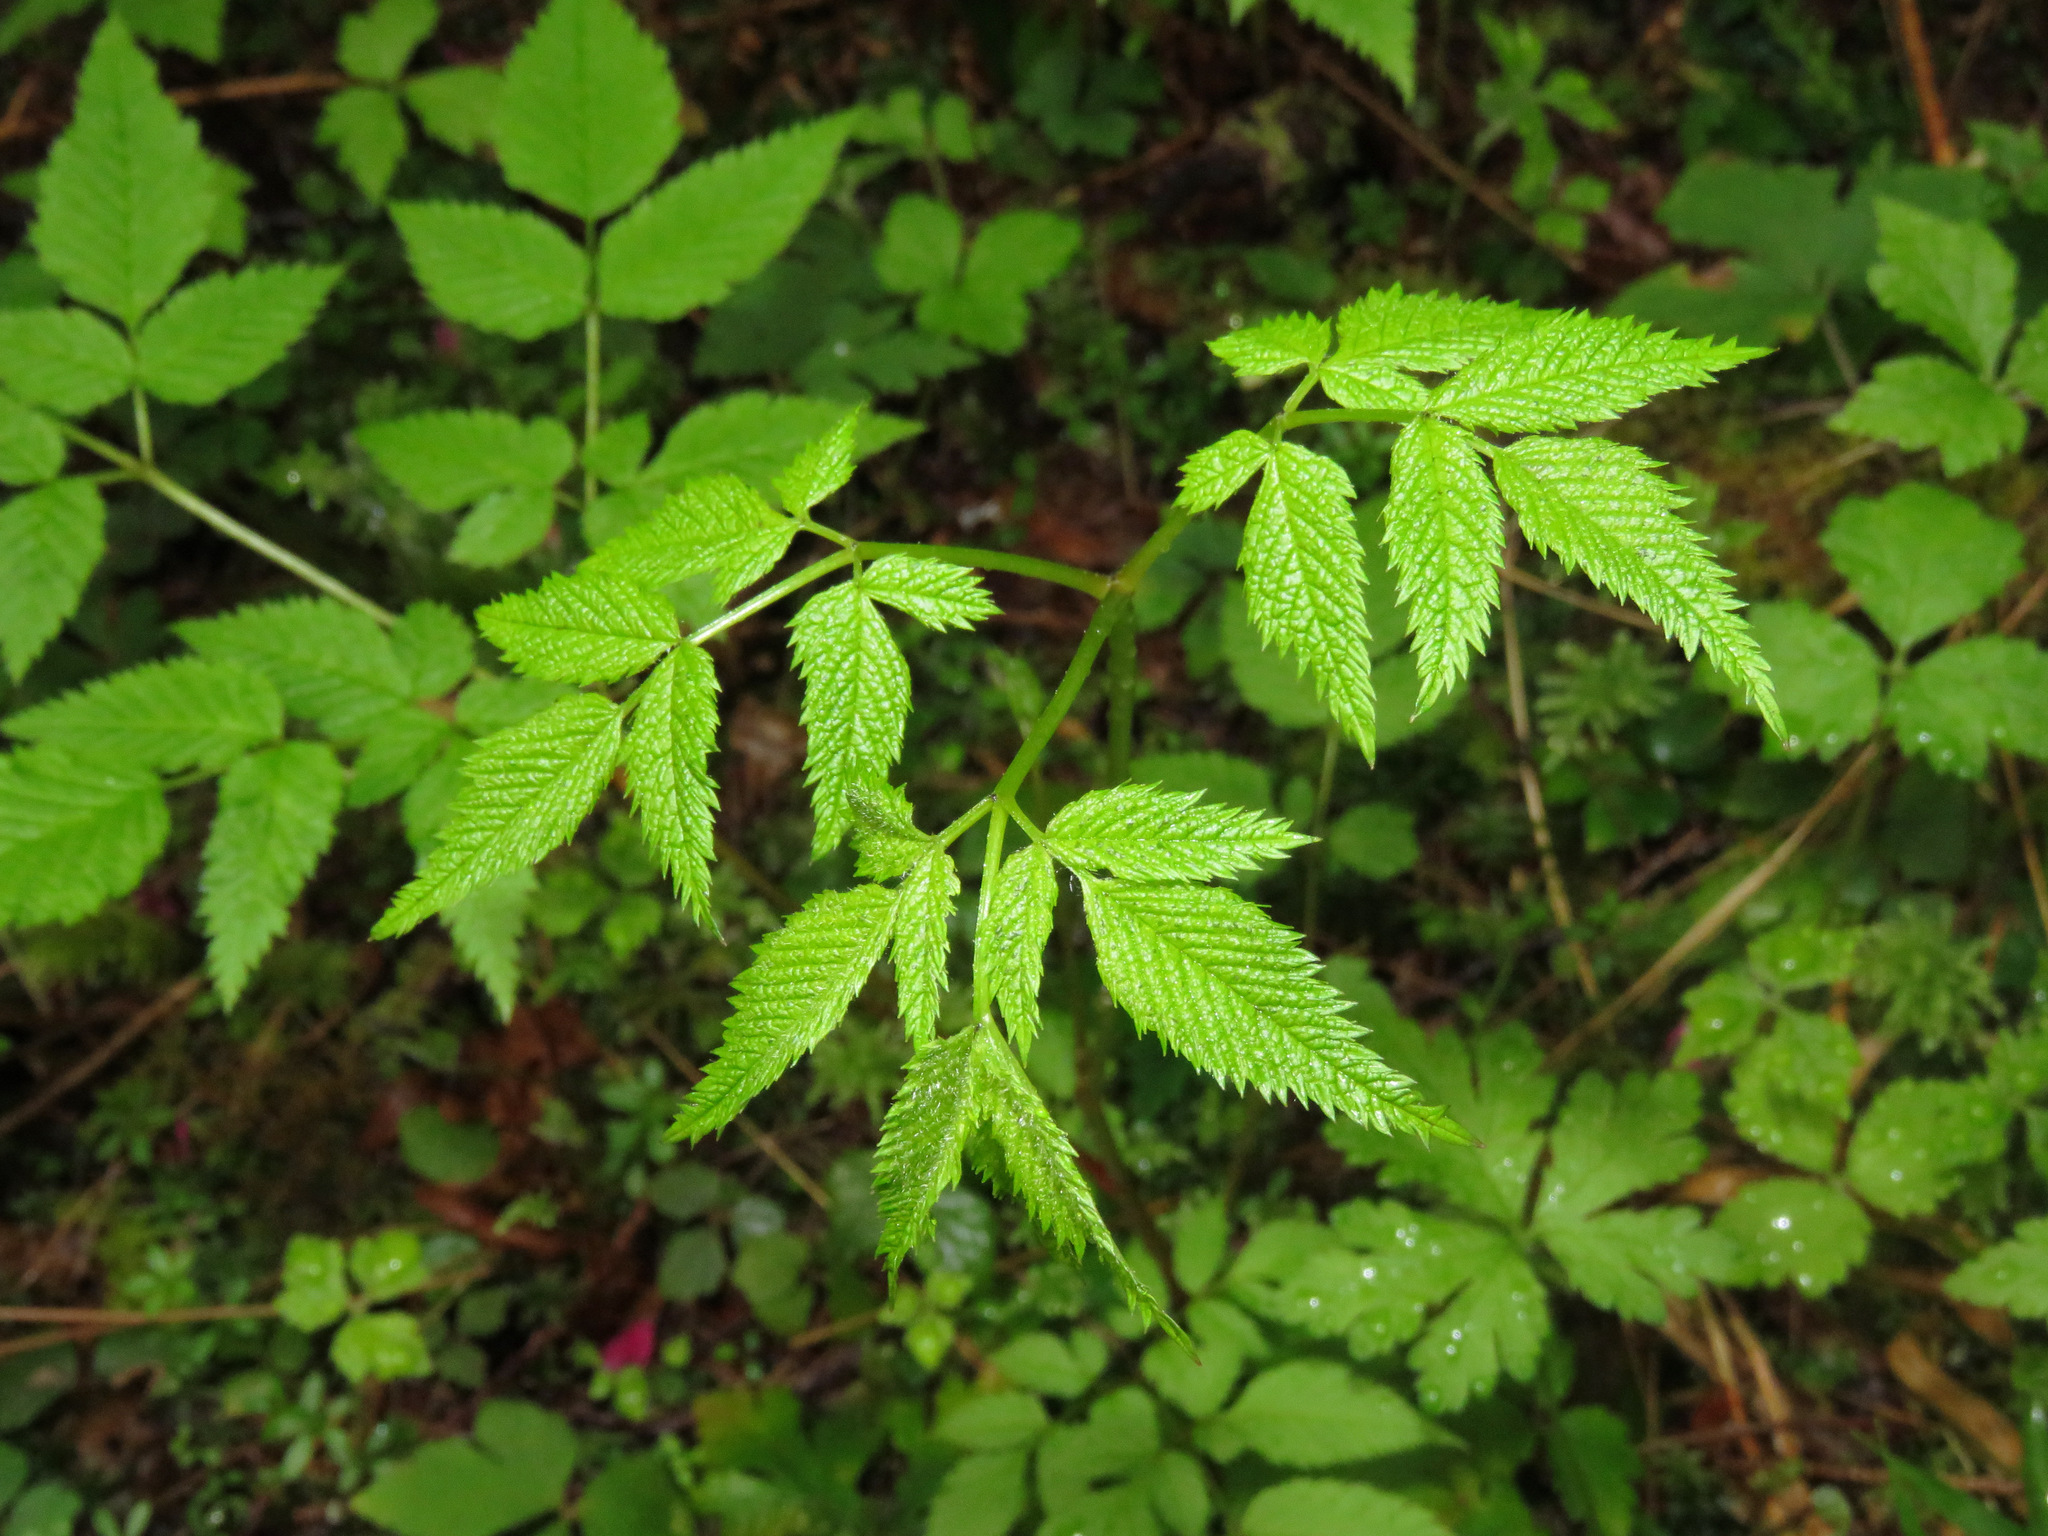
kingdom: Plantae
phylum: Tracheophyta
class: Magnoliopsida
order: Rosales
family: Rosaceae
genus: Aruncus
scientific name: Aruncus dioicus
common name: Buck's-beard
